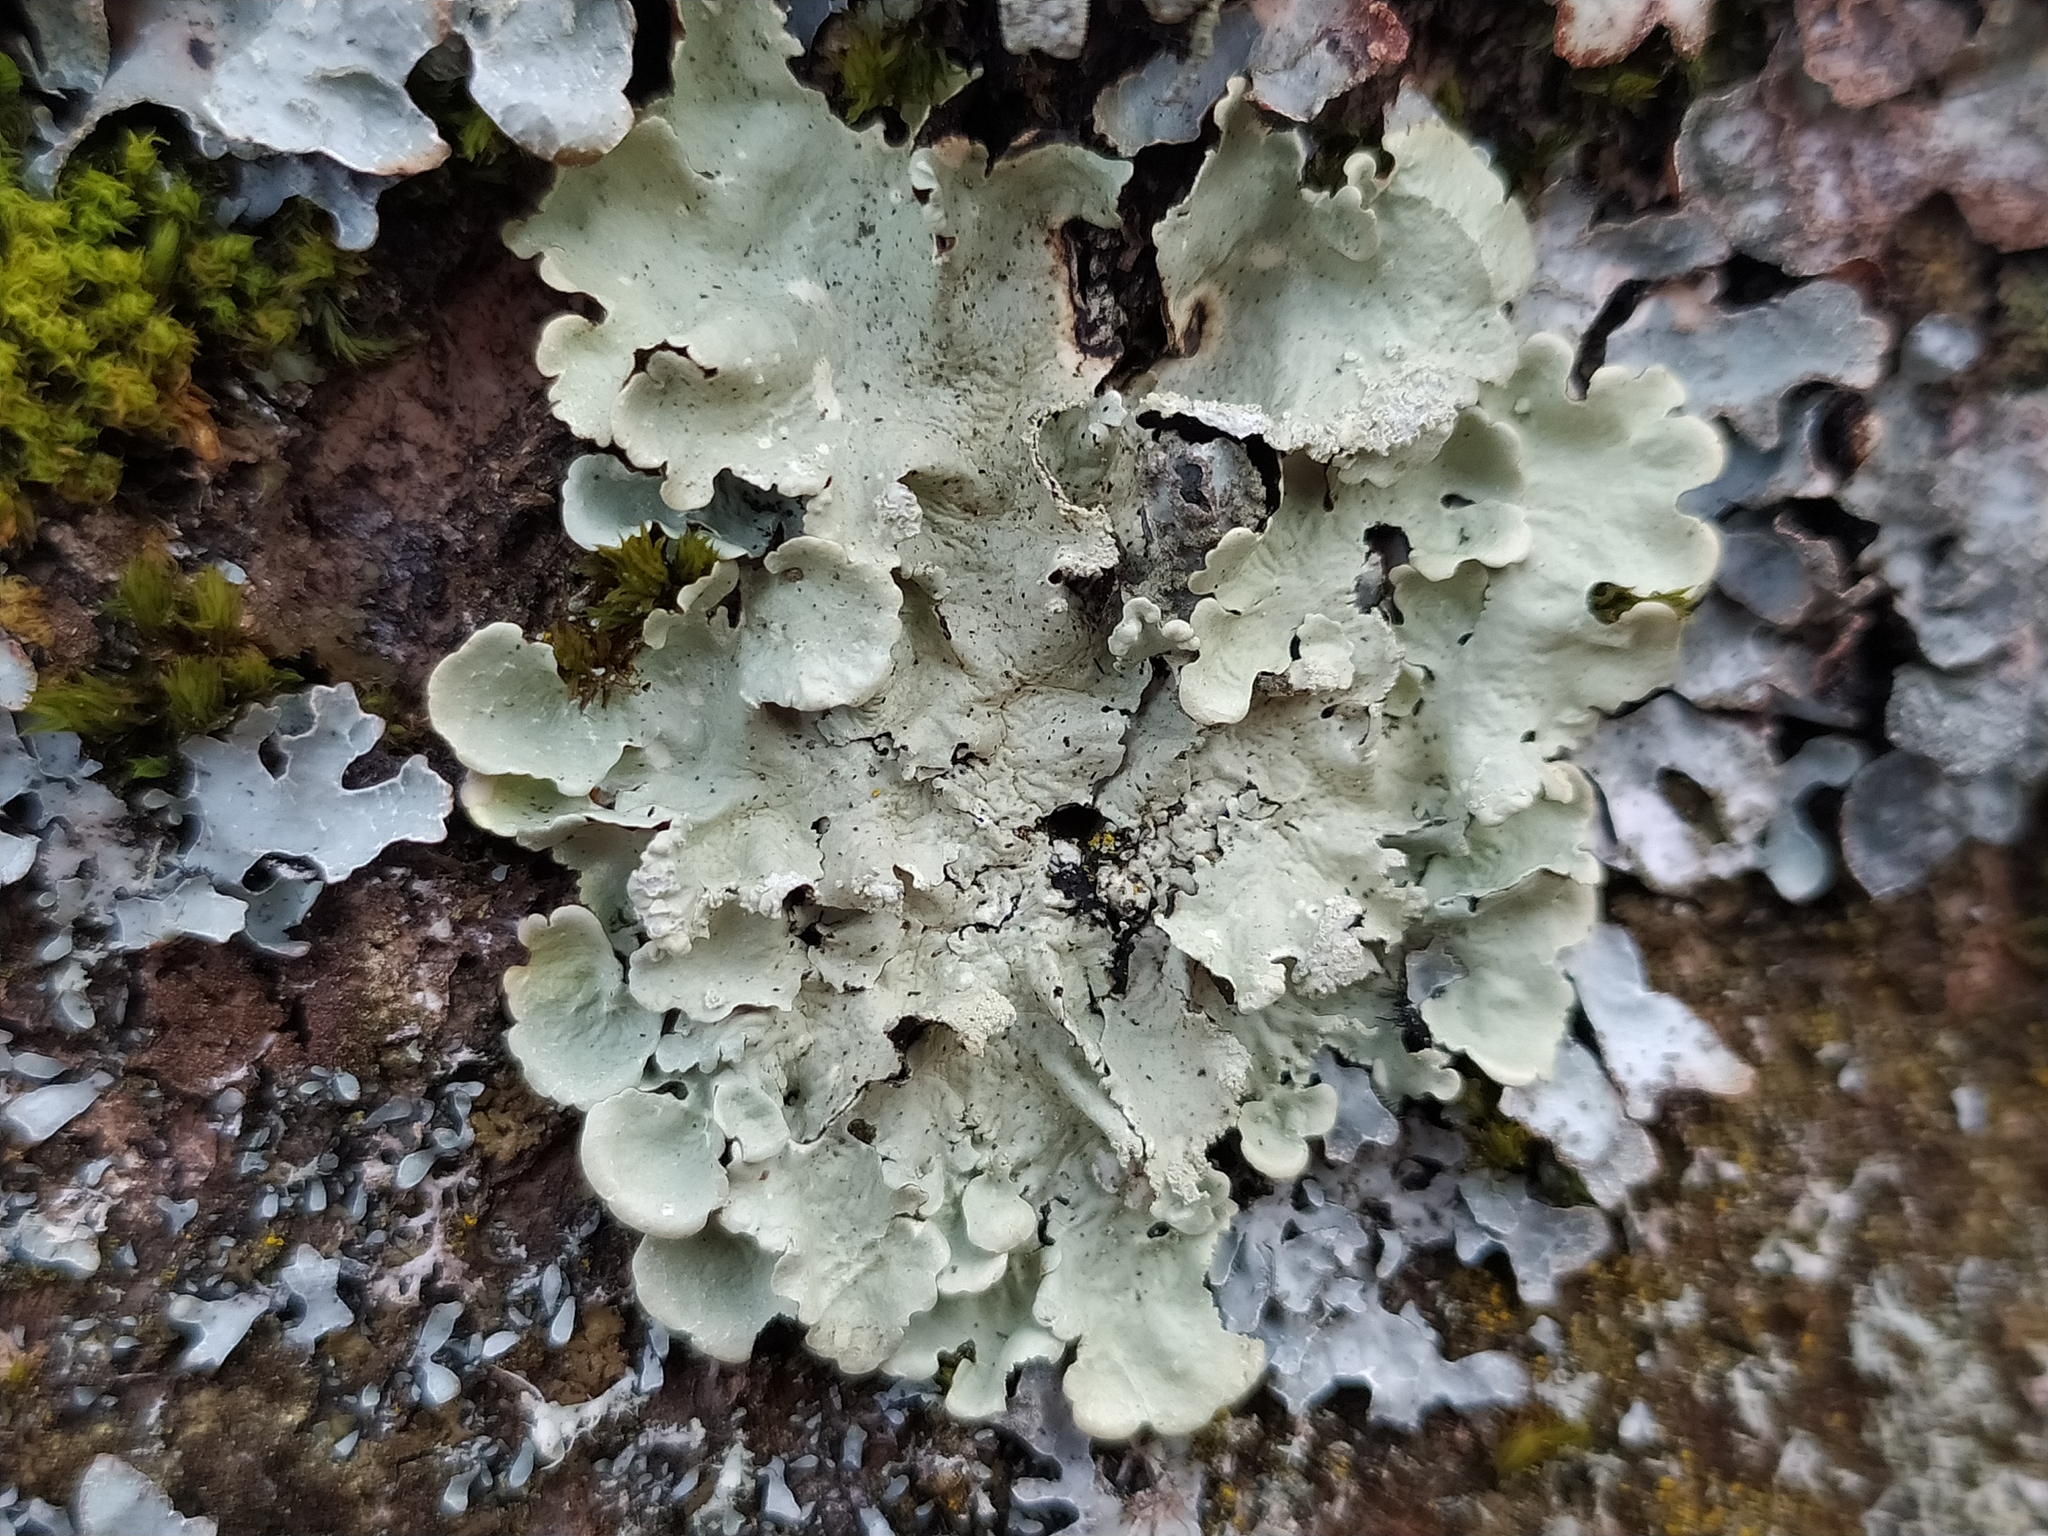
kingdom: Fungi
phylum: Ascomycota
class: Lecanoromycetes
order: Lecanorales
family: Parmeliaceae
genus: Flavoparmelia
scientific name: Flavoparmelia caperata
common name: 40-mile per hour lichen
